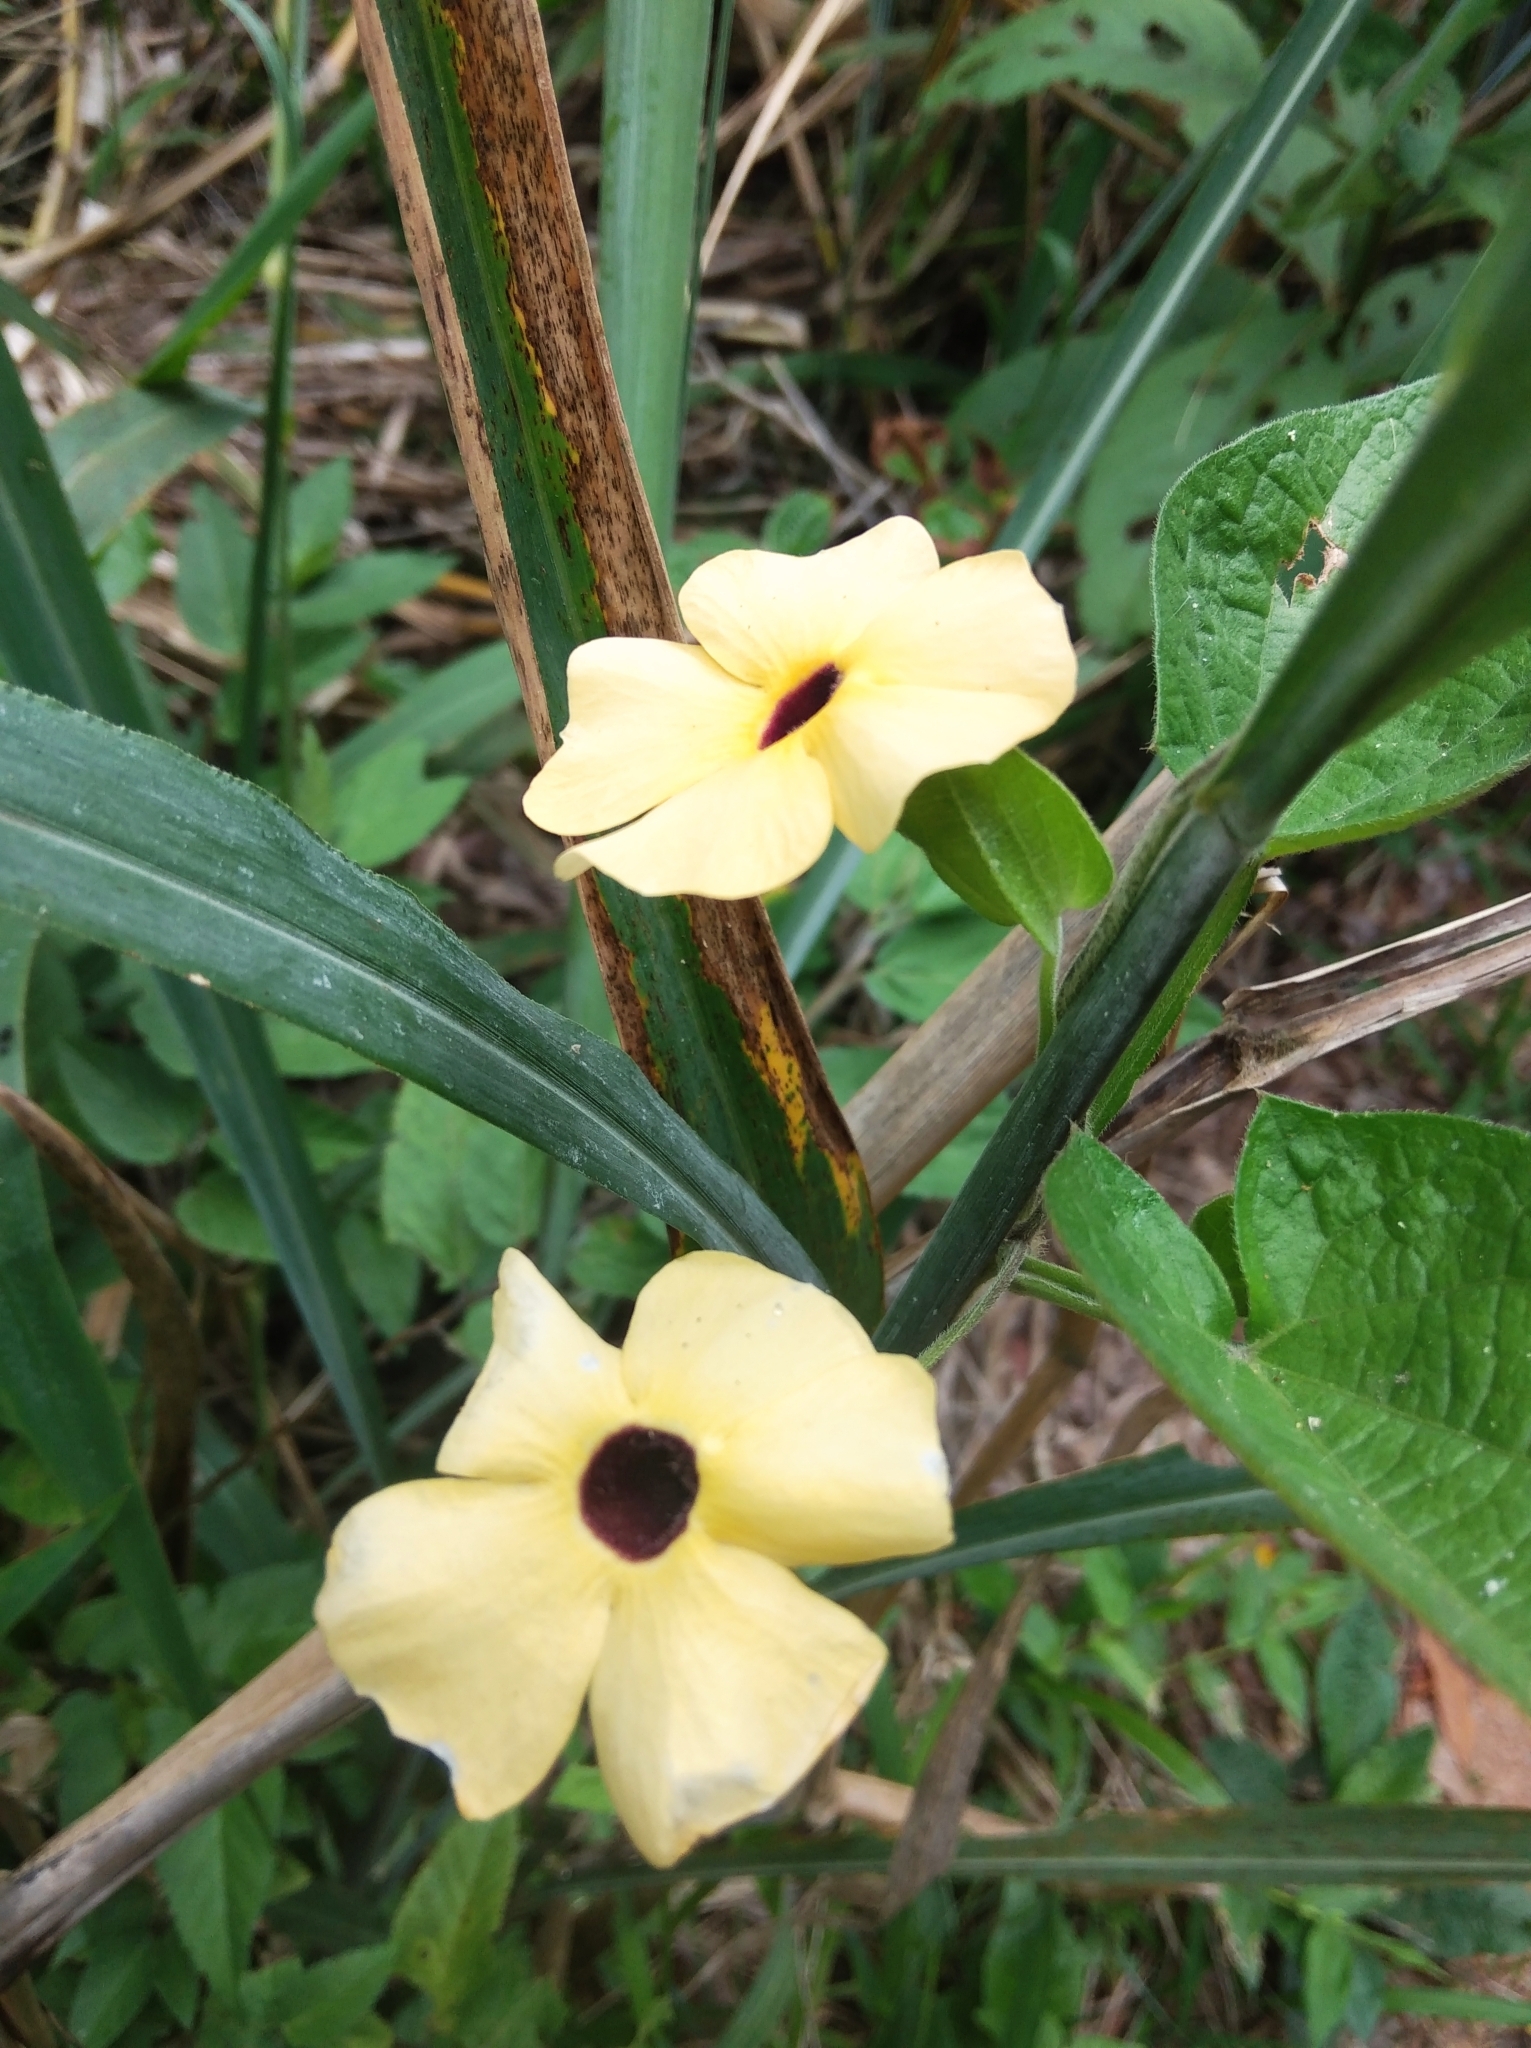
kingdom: Plantae
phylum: Tracheophyta
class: Magnoliopsida
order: Lamiales
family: Acanthaceae
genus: Thunbergia
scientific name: Thunbergia alata
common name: Blackeyed susan vine
